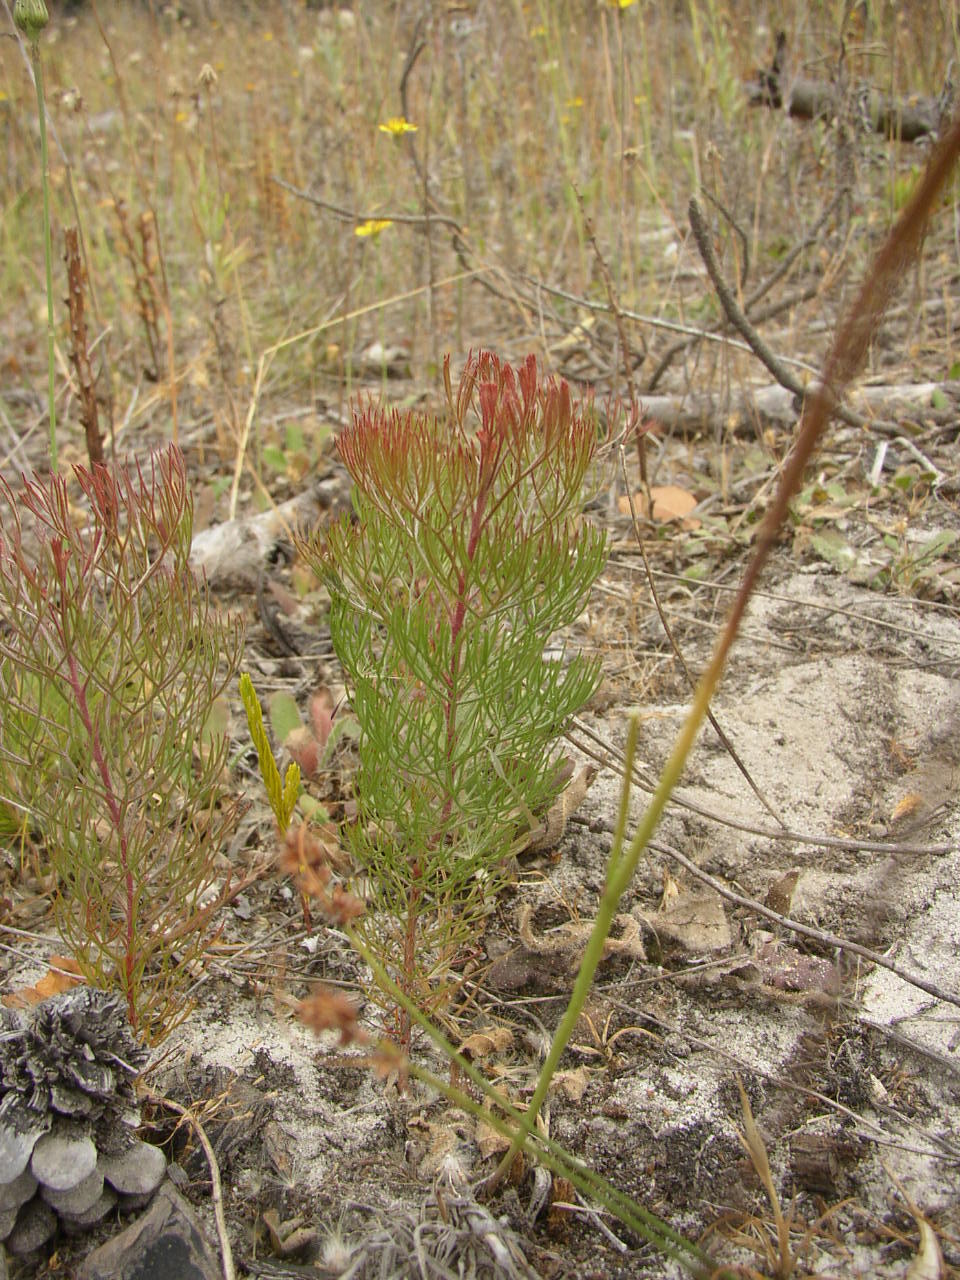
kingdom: Plantae
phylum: Tracheophyta
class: Magnoliopsida
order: Proteales
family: Proteaceae
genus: Serruria
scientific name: Serruria fasciflora
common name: Common pin spiderhead
